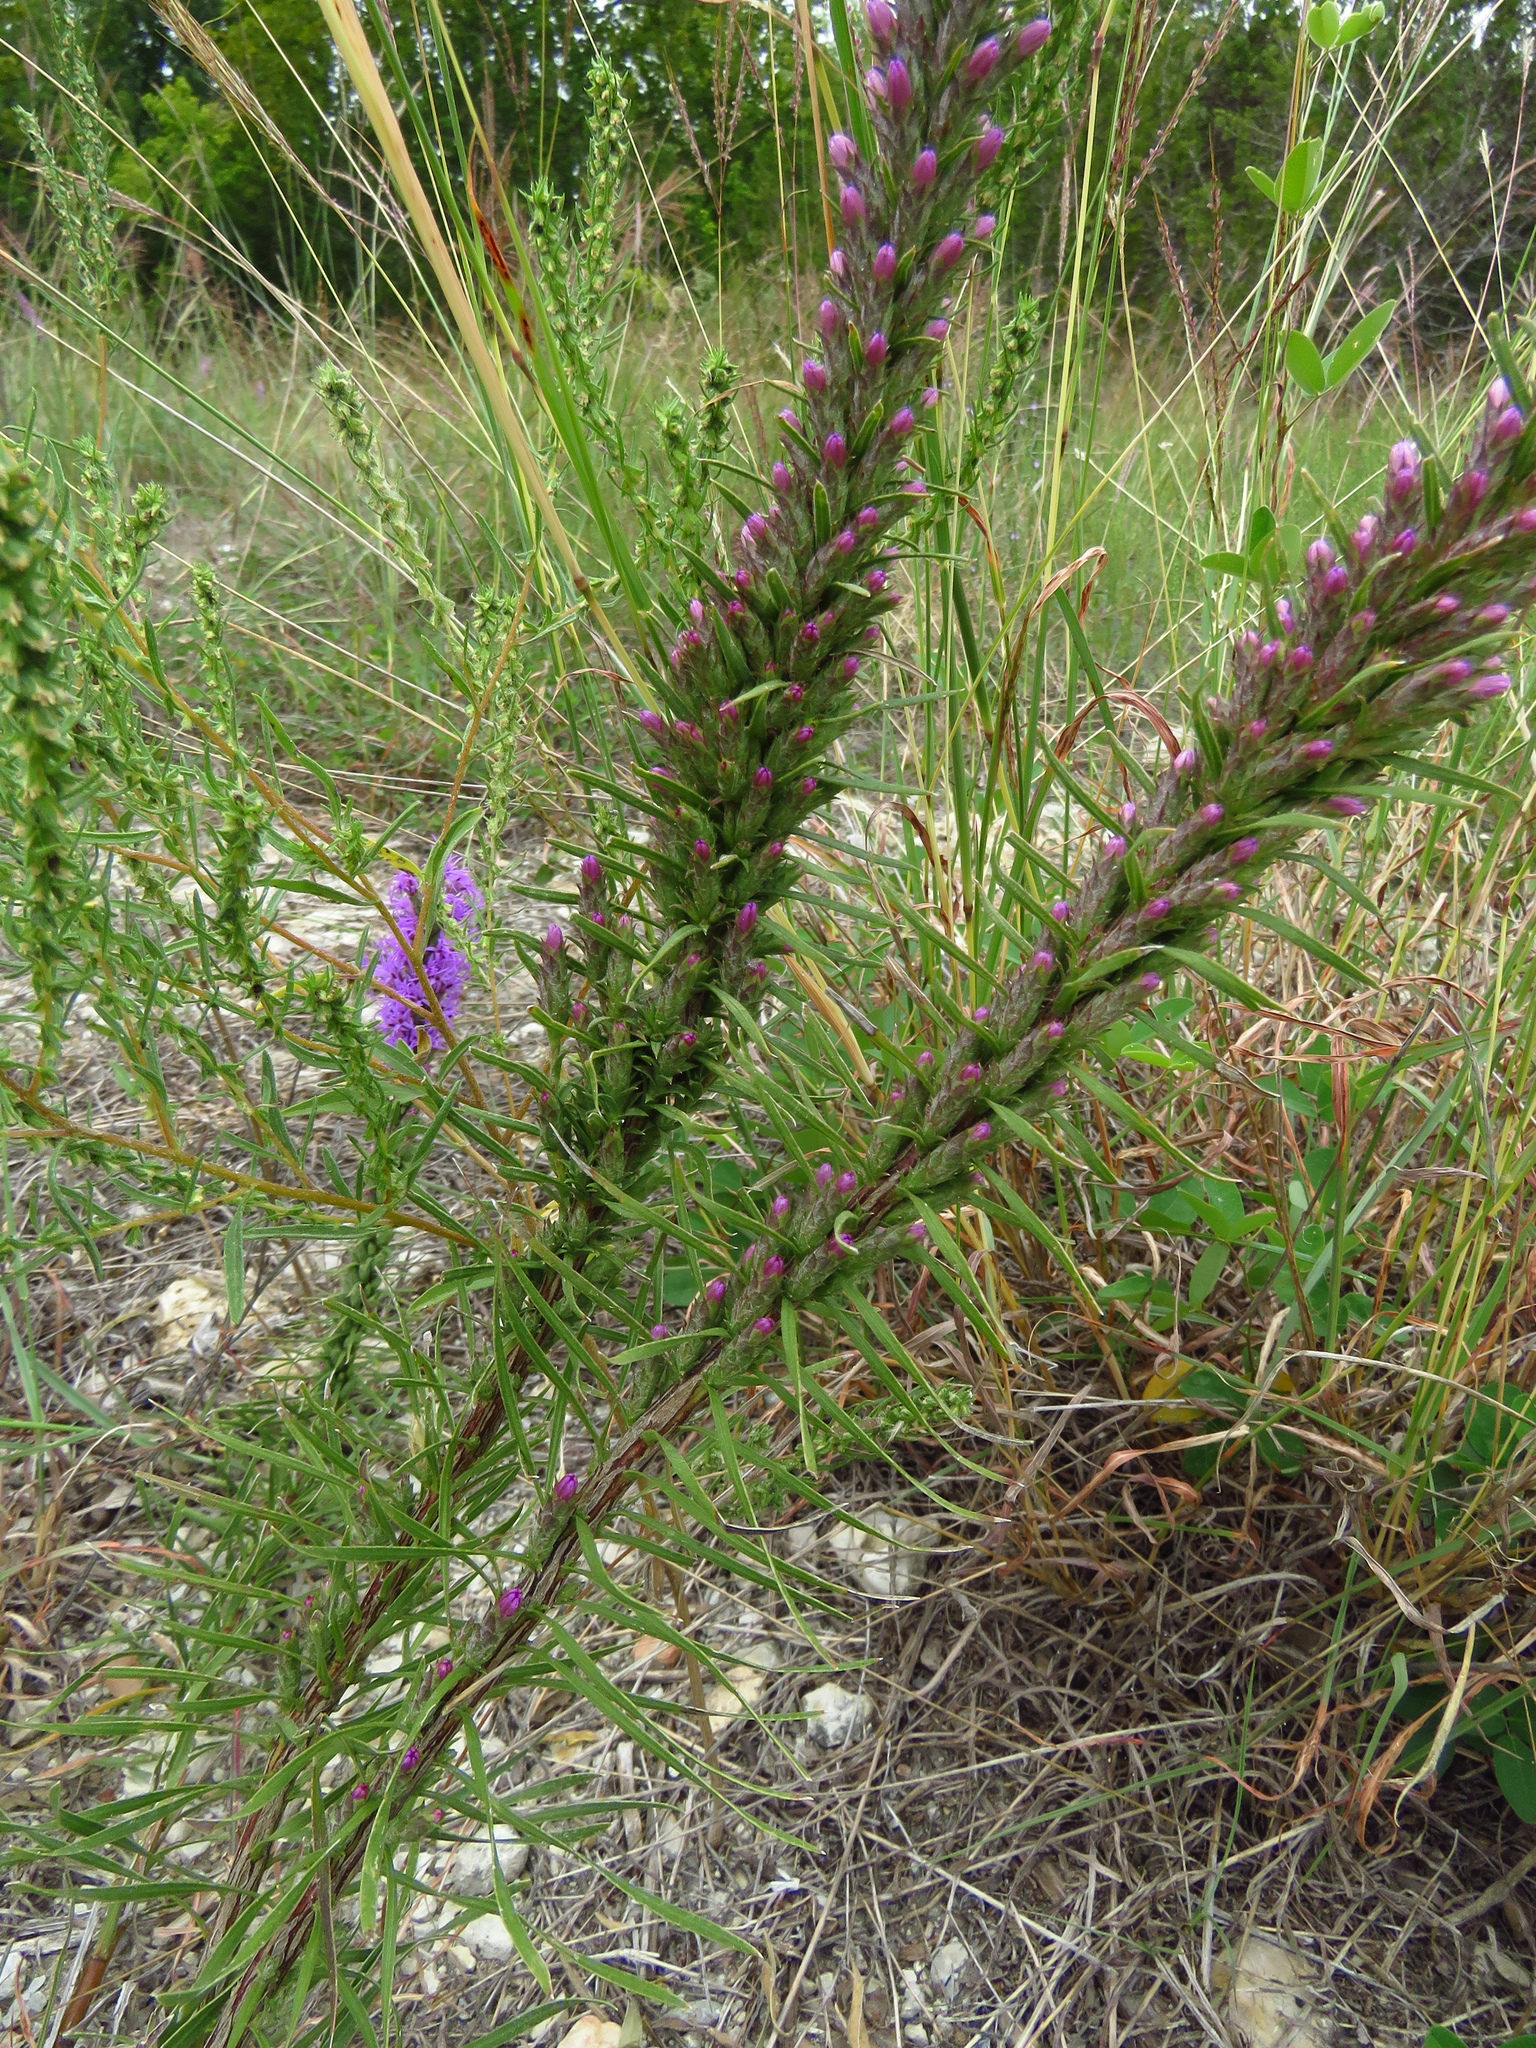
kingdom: Plantae
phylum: Tracheophyta
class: Magnoliopsida
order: Asterales
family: Asteraceae
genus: Liatris
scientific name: Liatris punctata
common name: Dotted gayfeather
